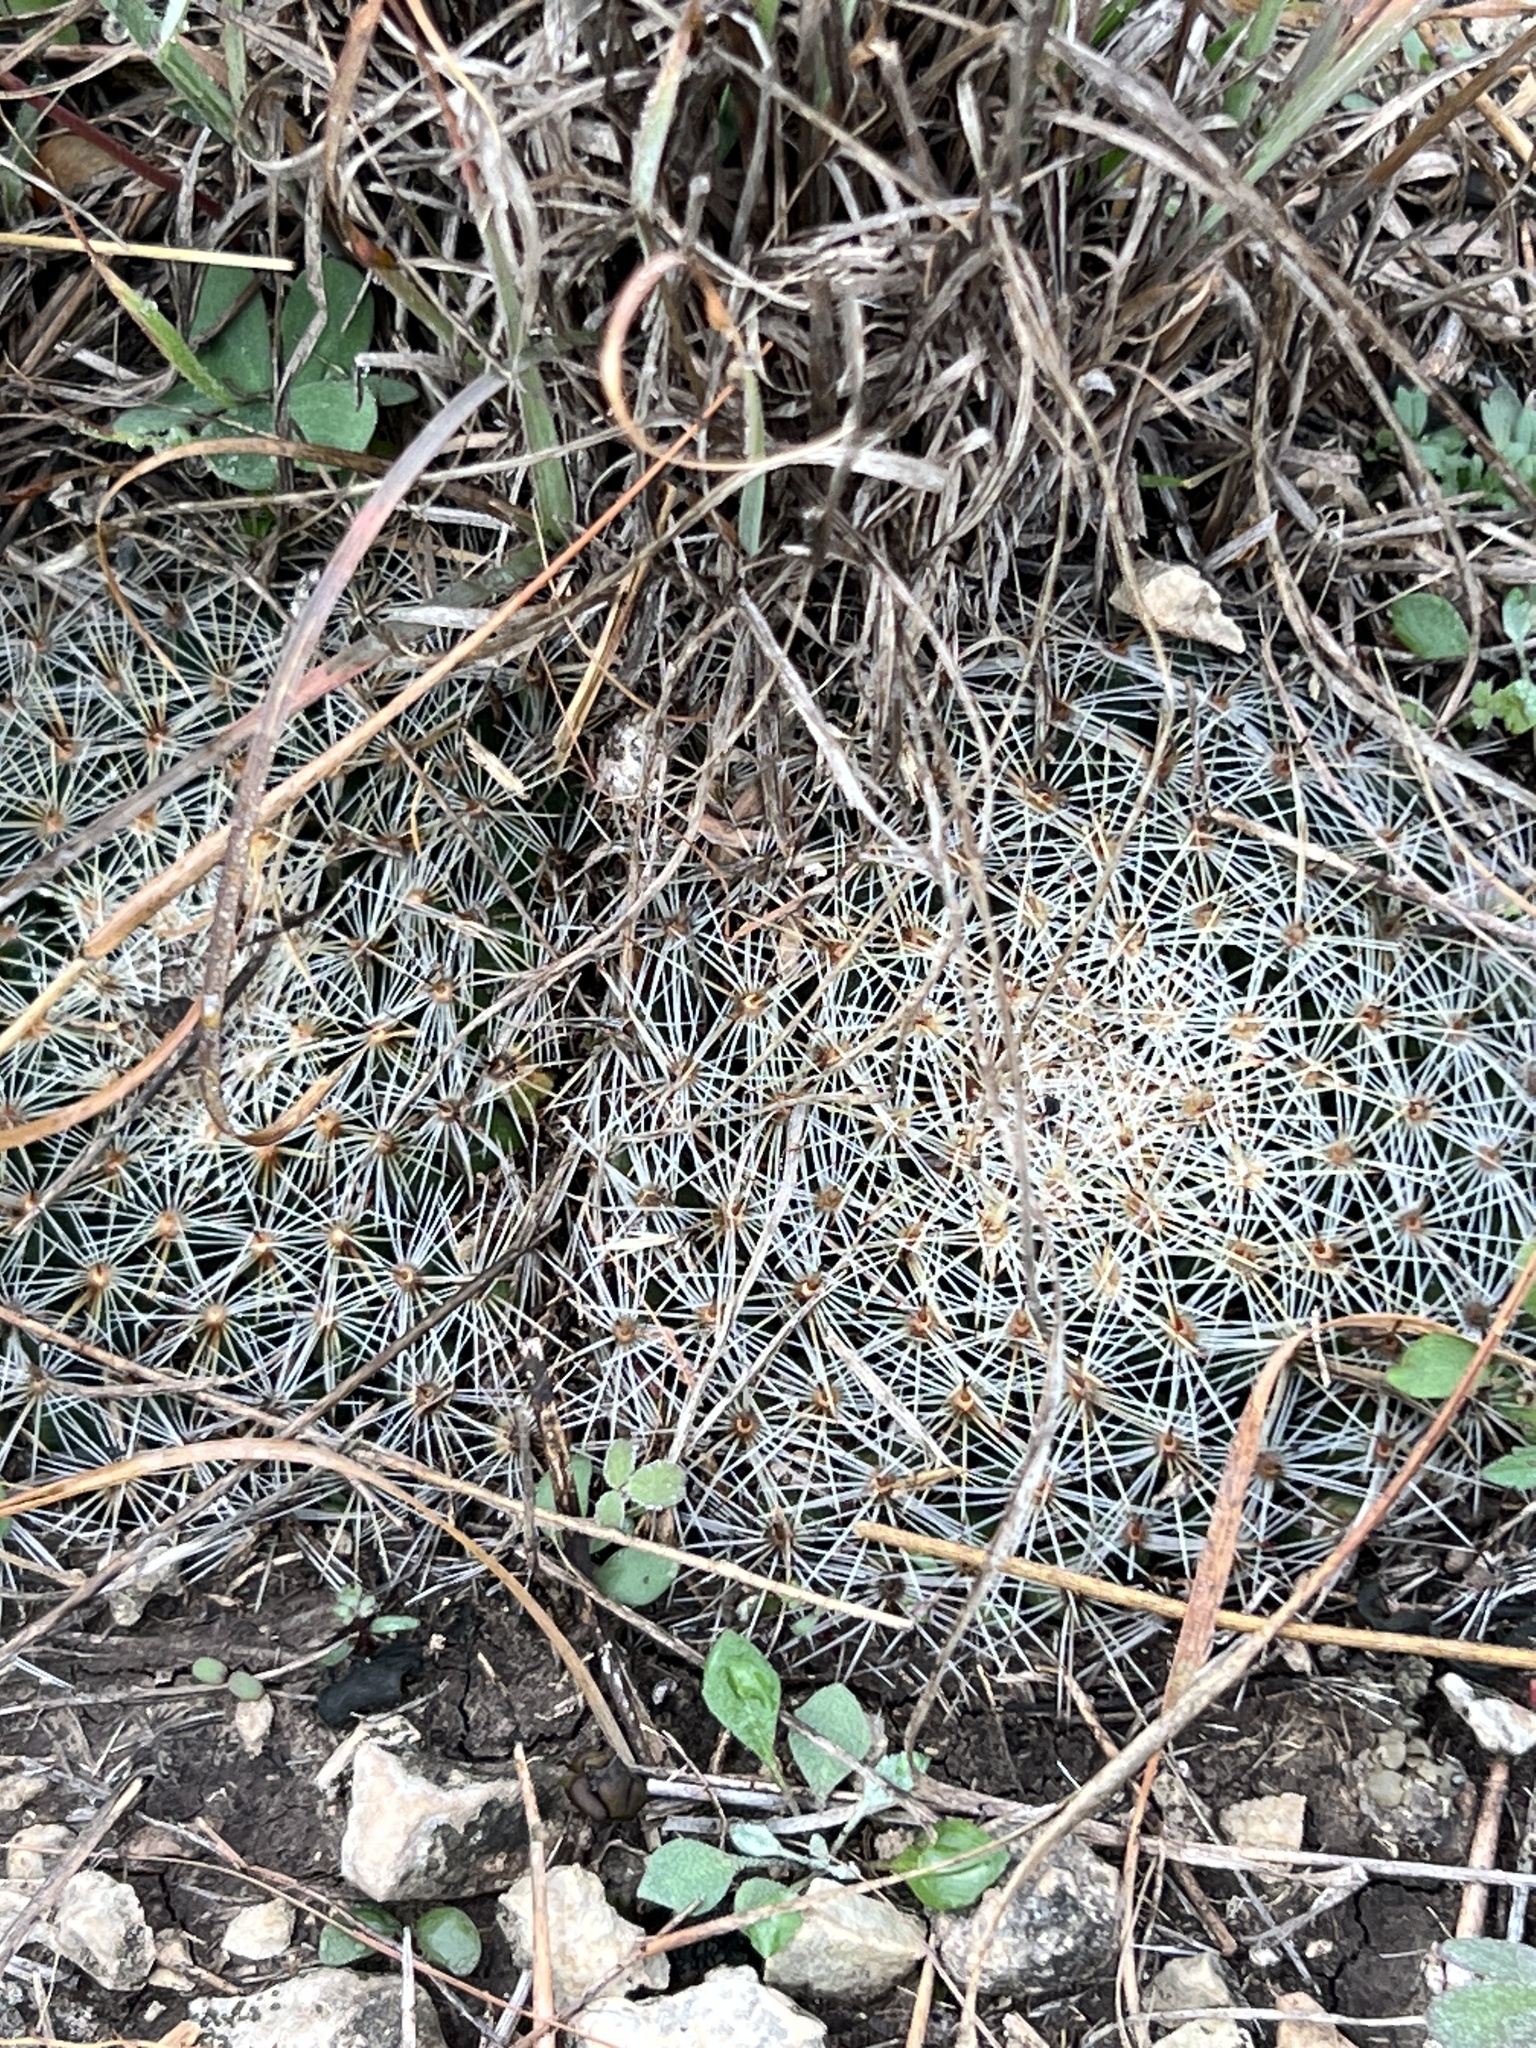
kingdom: Plantae
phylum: Tracheophyta
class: Magnoliopsida
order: Caryophyllales
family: Cactaceae
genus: Mammillaria
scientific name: Mammillaria heyderi
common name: Little nipple cactus
